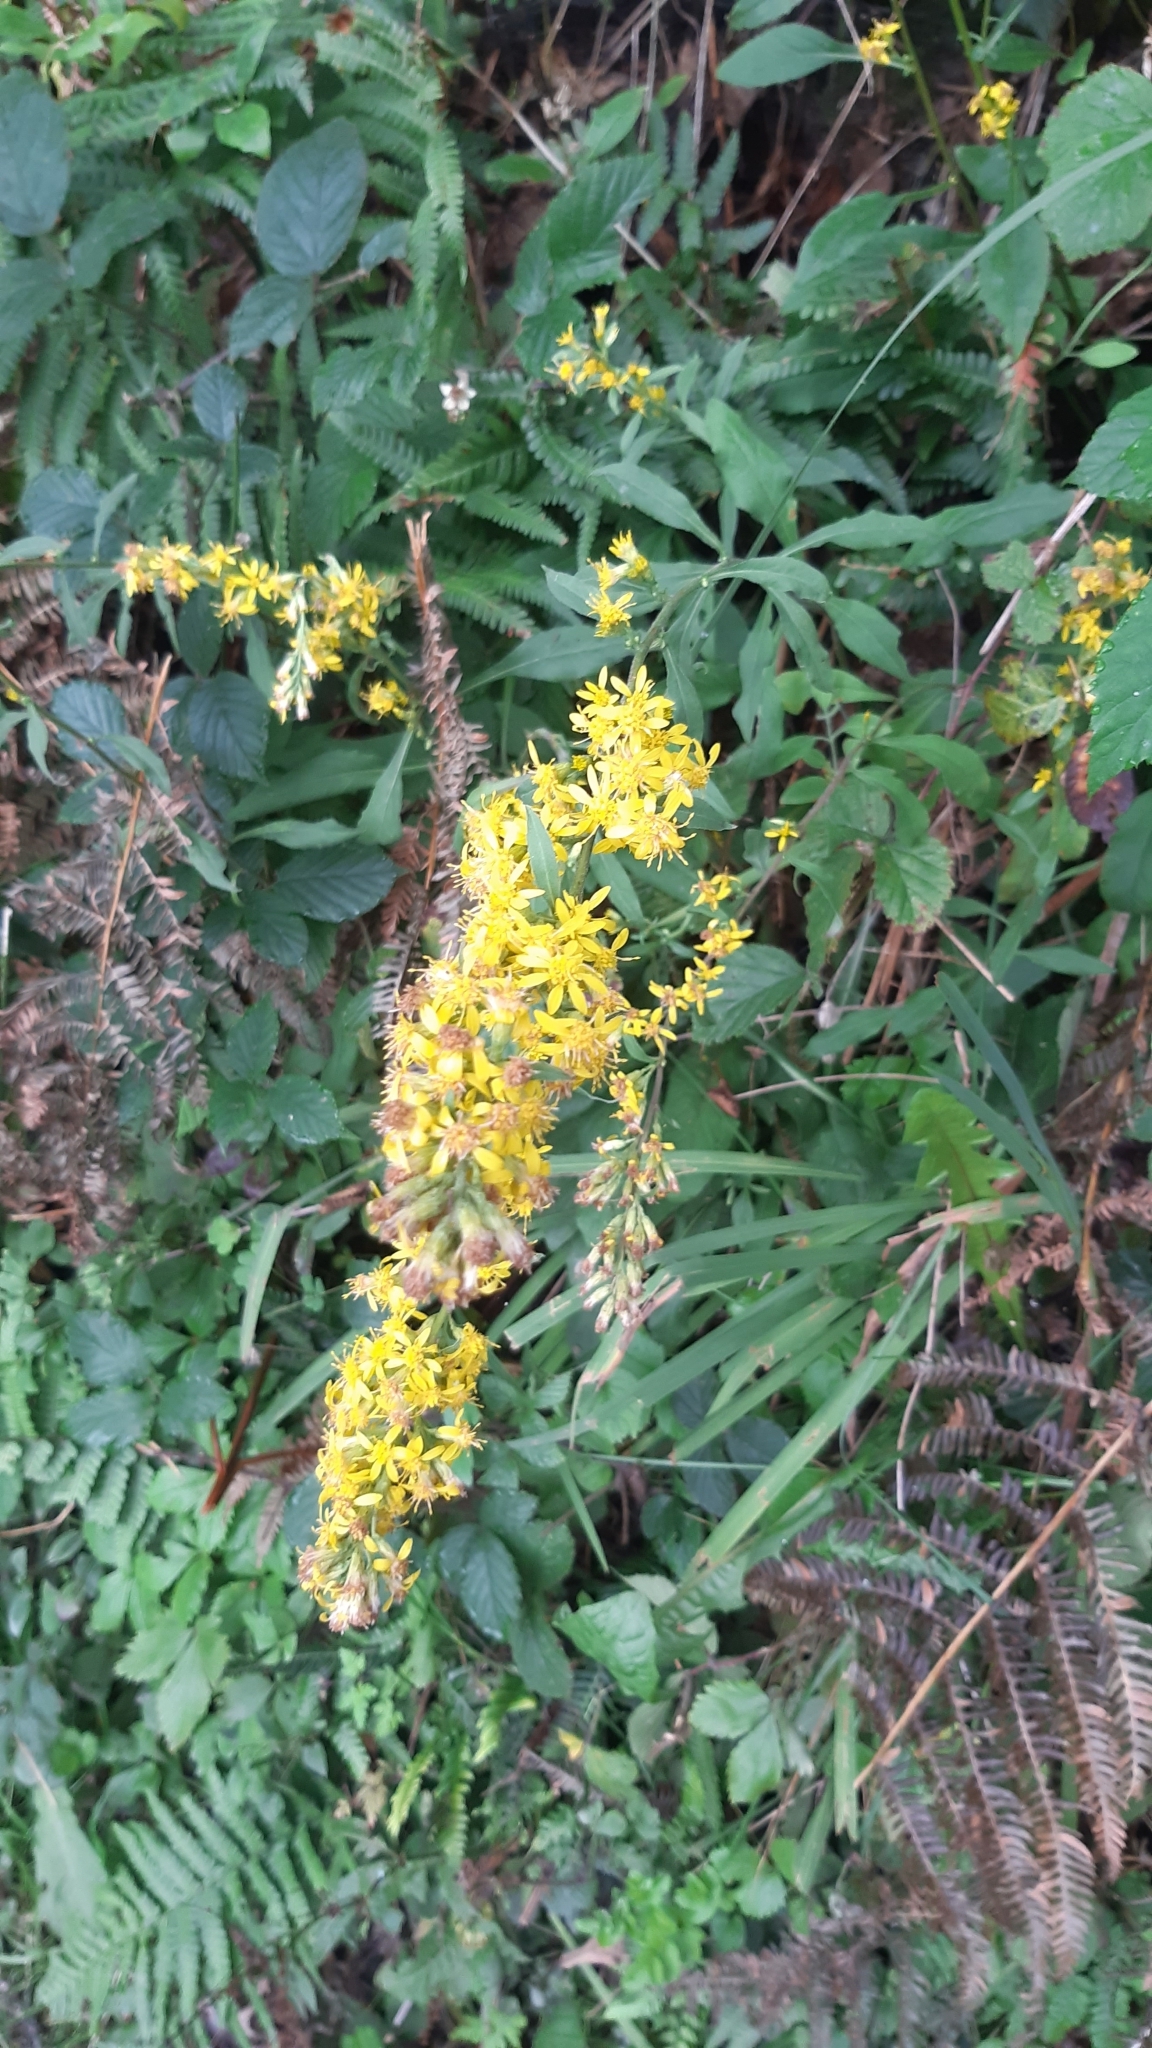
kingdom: Plantae
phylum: Tracheophyta
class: Magnoliopsida
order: Asterales
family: Asteraceae
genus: Solidago
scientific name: Solidago virgaurea
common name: Goldenrod
